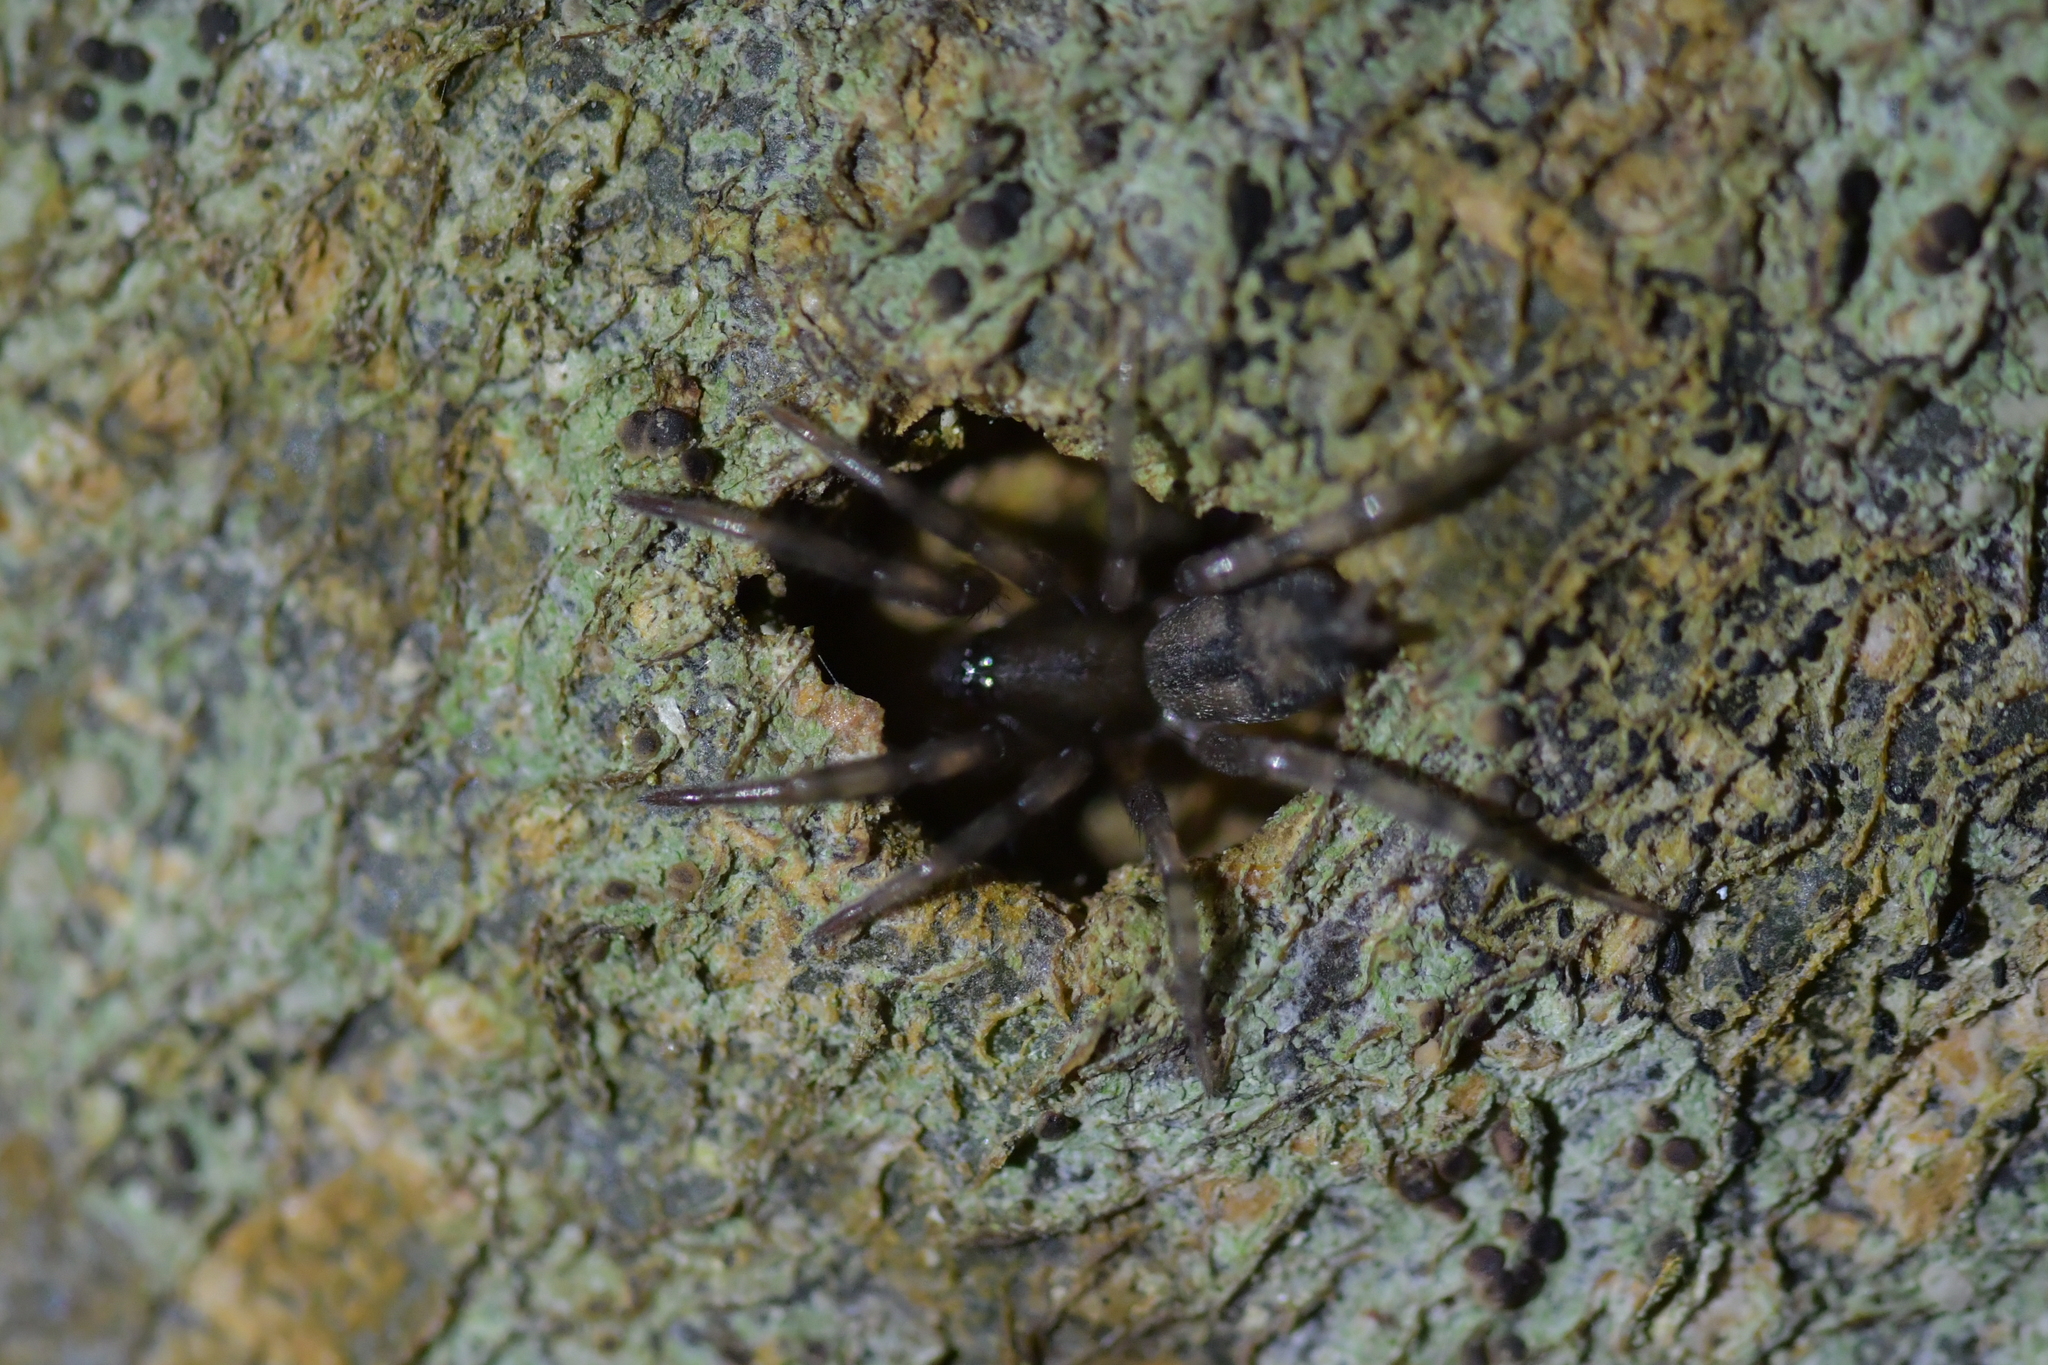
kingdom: Animalia
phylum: Arthropoda
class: Arachnida
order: Araneae
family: Gnaphosidae
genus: Intruda
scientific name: Intruda signata
